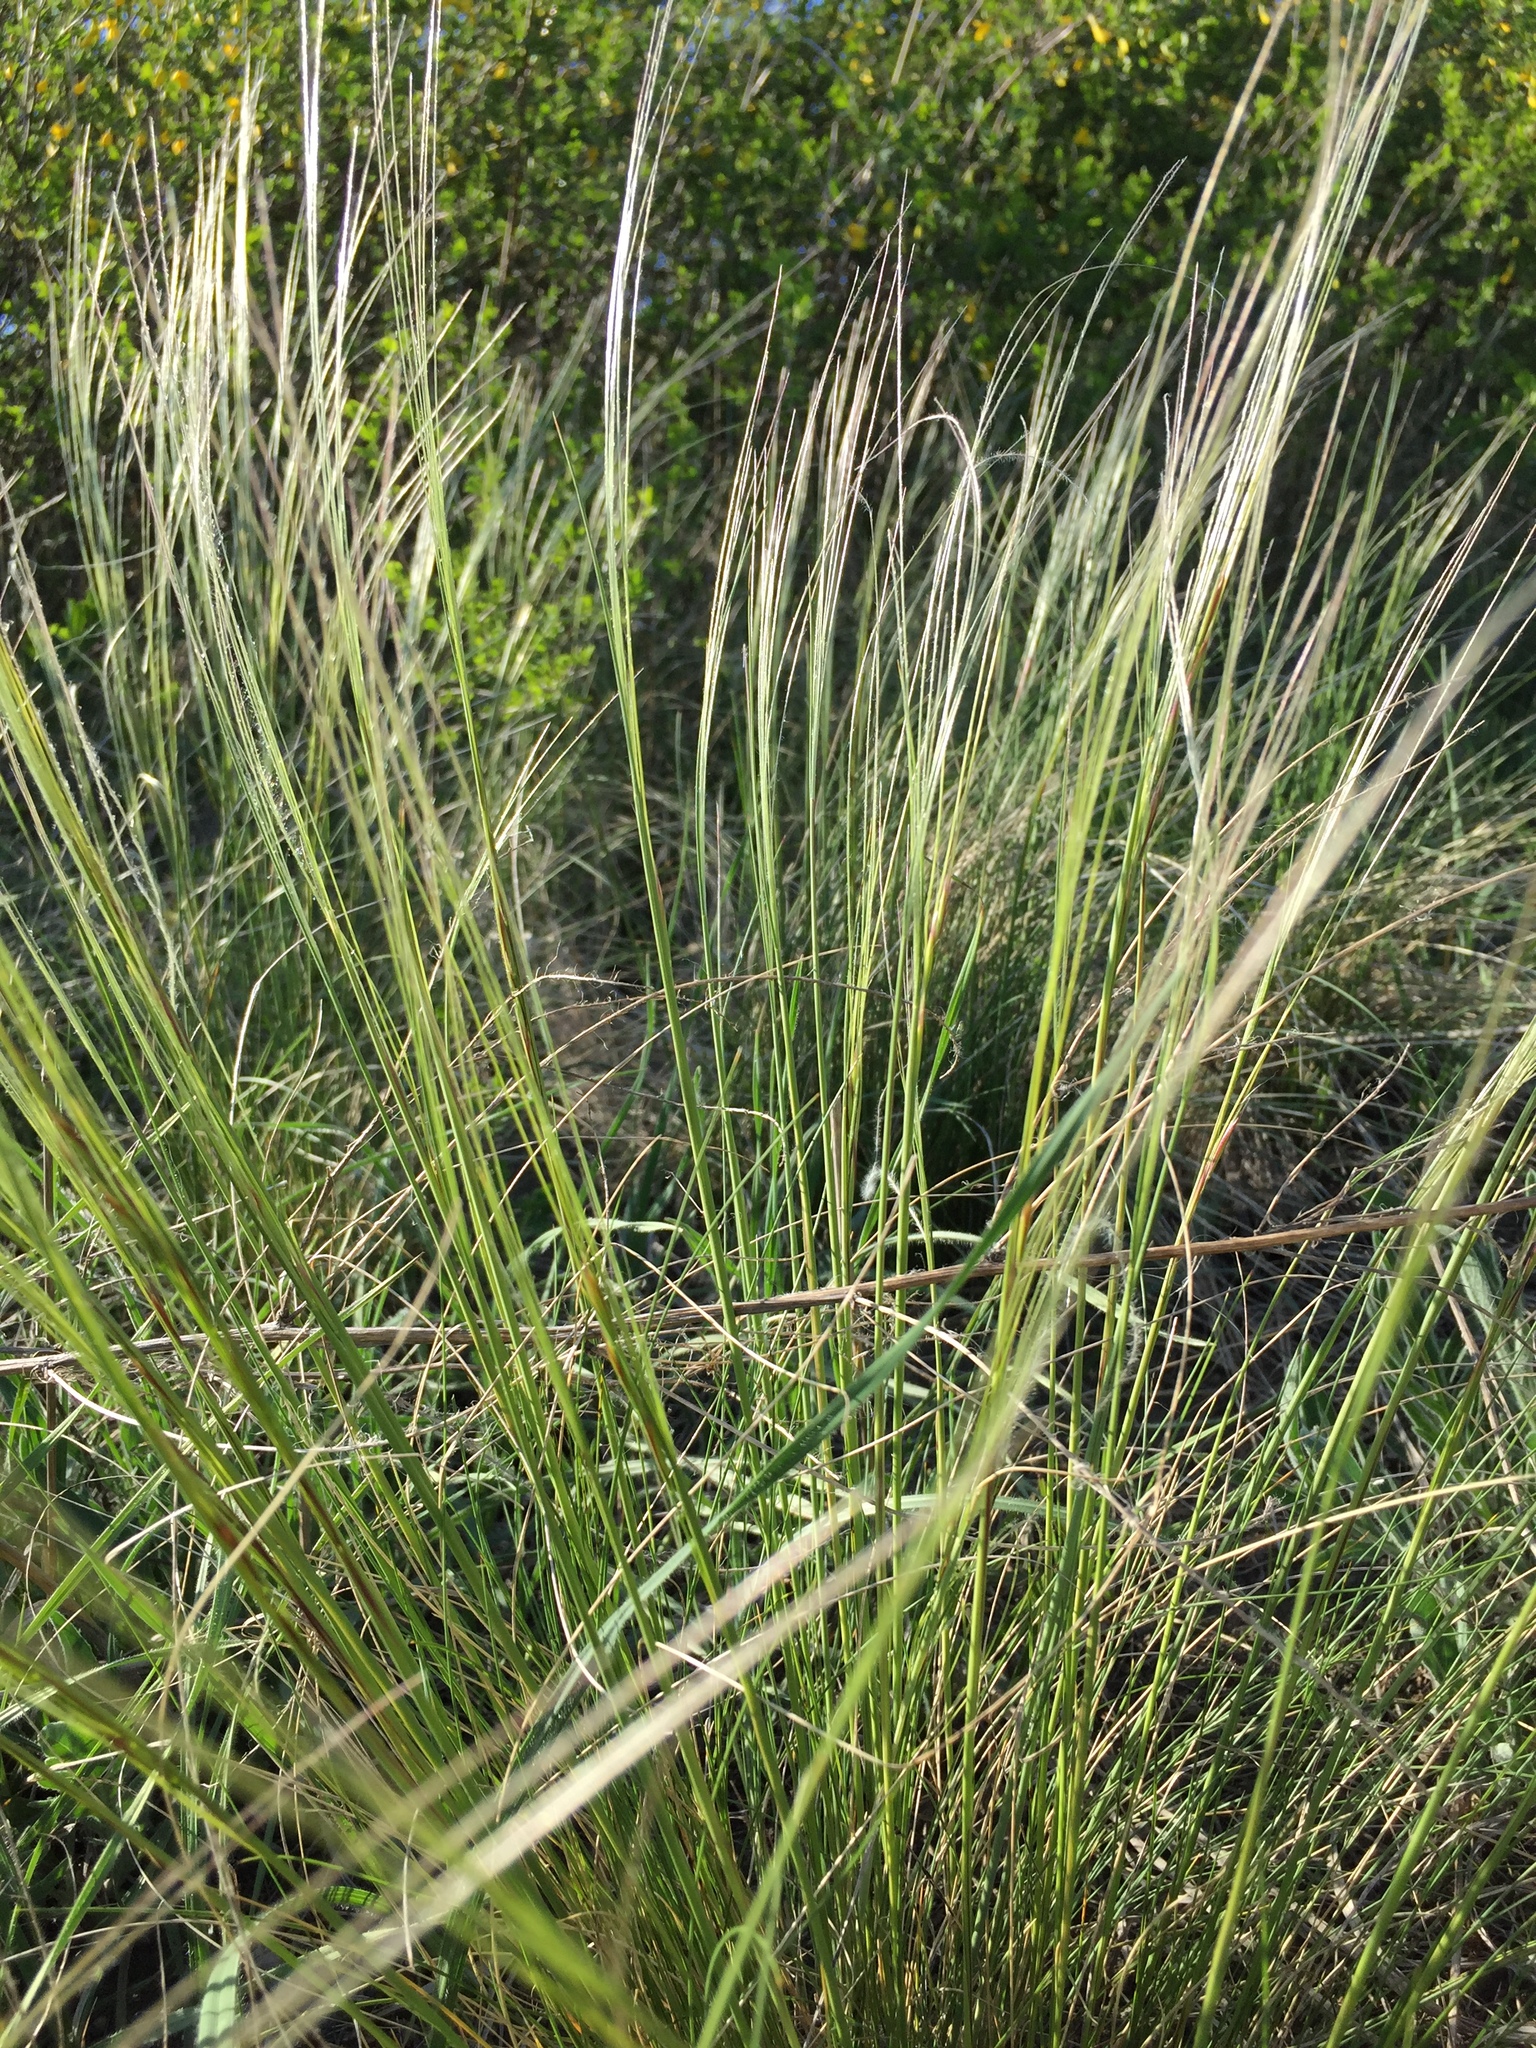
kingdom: Plantae
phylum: Tracheophyta
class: Liliopsida
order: Poales
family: Poaceae
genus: Stipa
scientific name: Stipa pennata
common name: European feather grass
